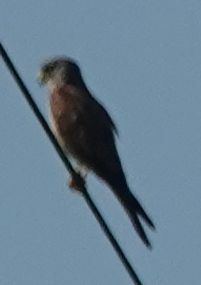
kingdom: Animalia
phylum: Chordata
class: Aves
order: Falconiformes
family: Falconidae
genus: Falco
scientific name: Falco tinnunculus
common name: Common kestrel
